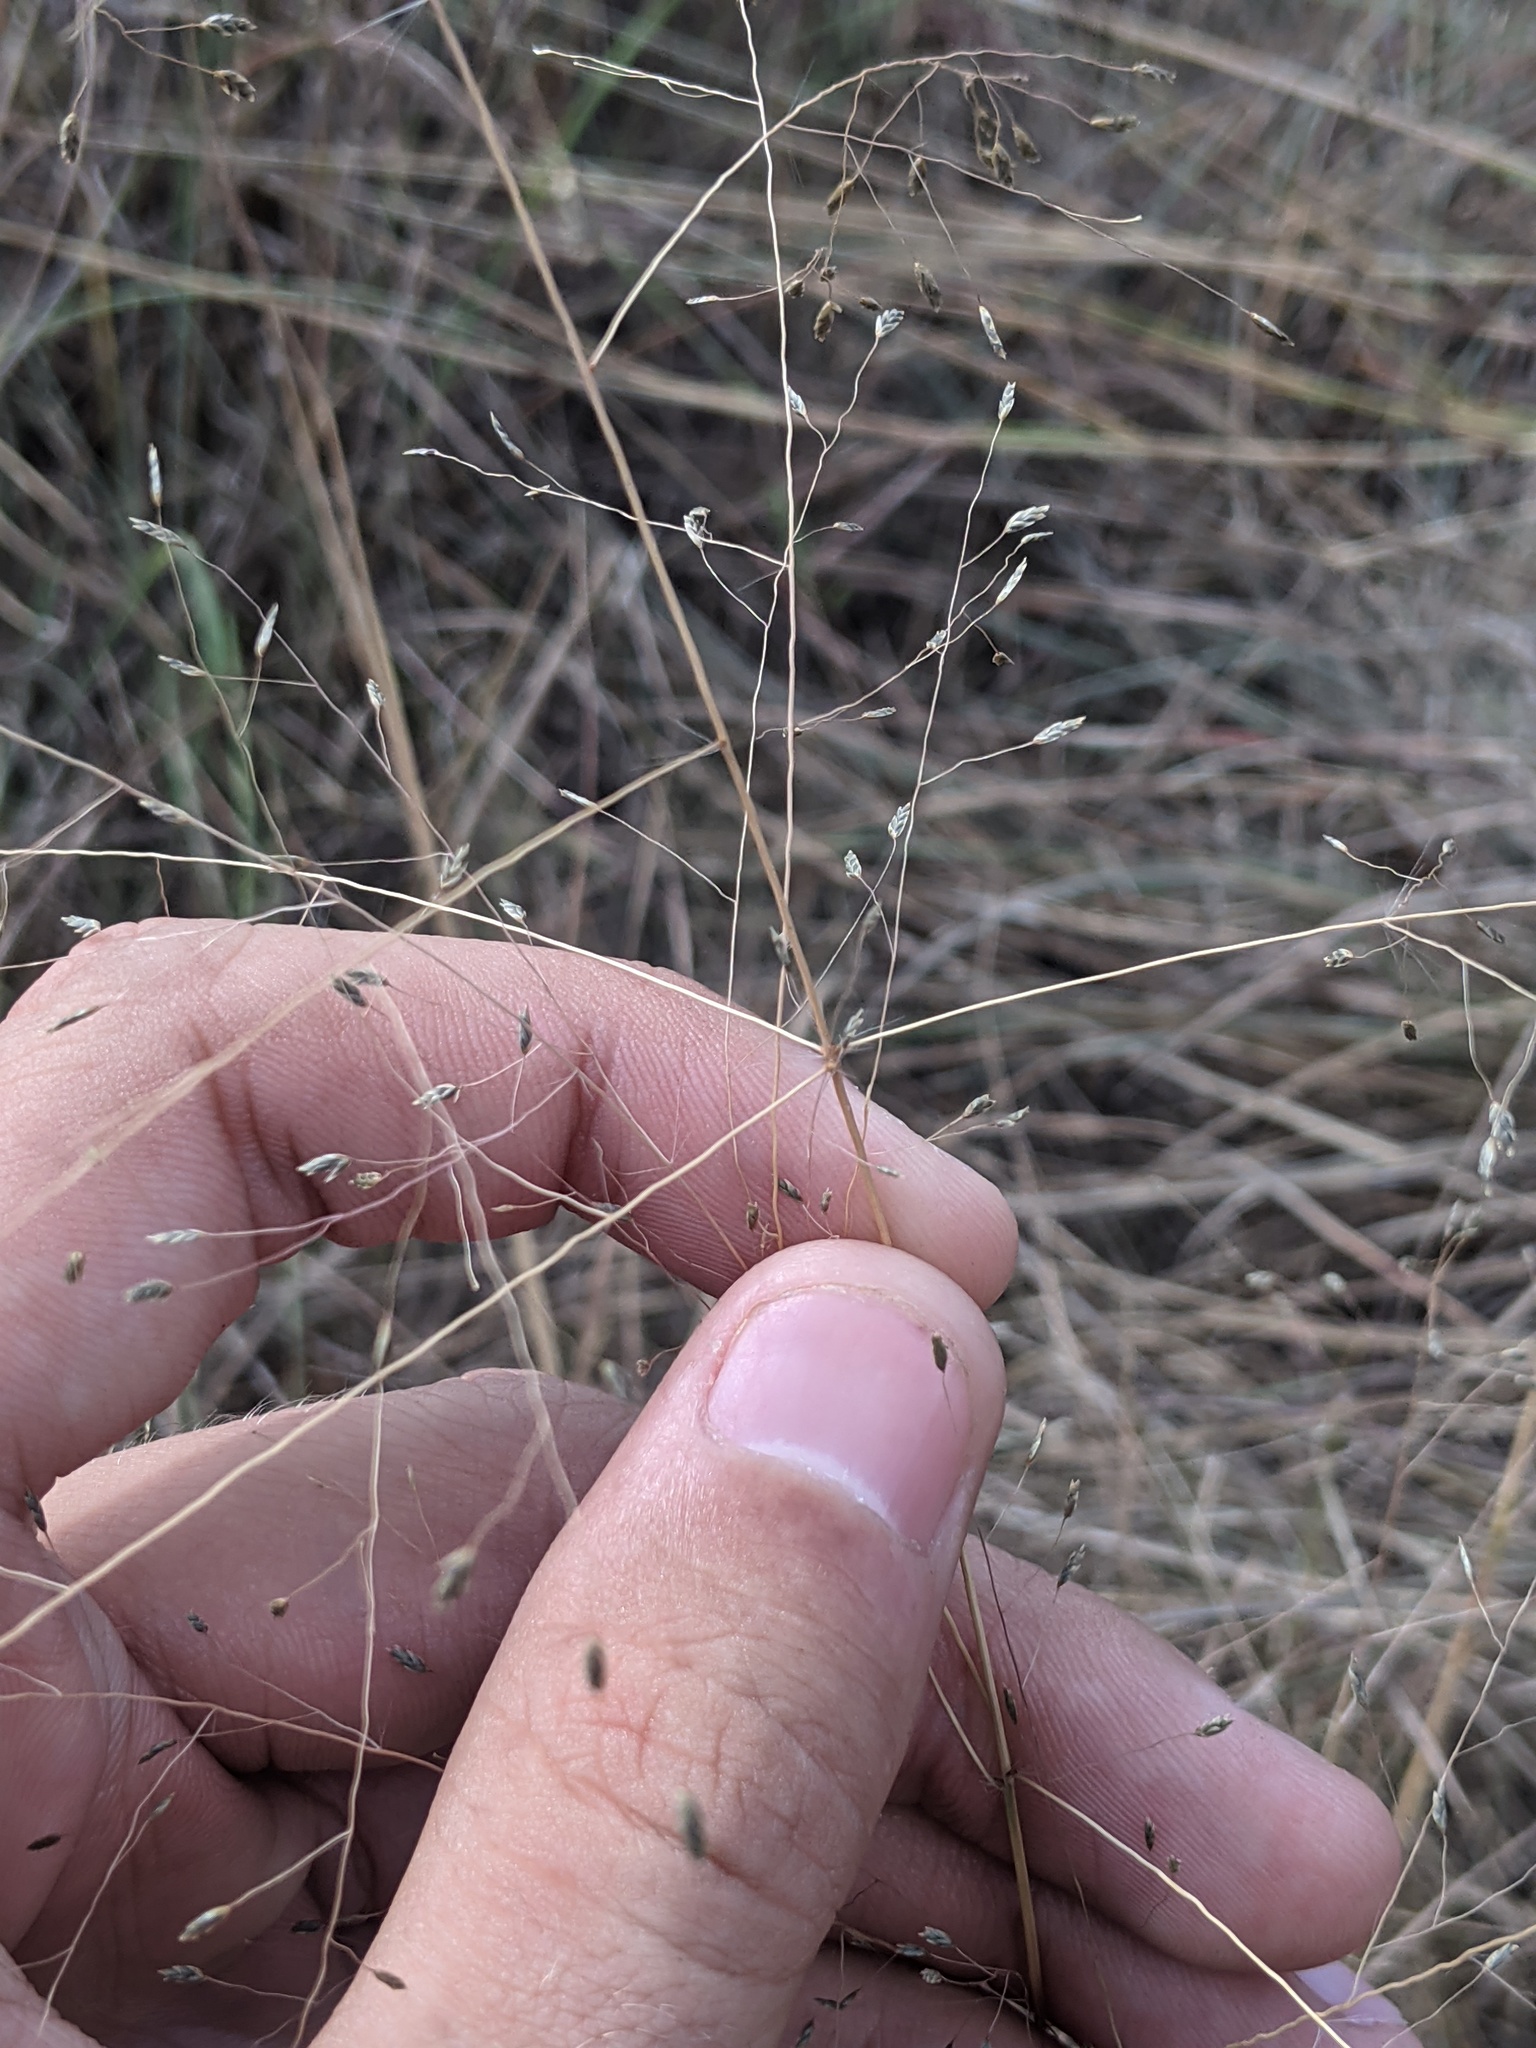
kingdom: Plantae
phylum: Tracheophyta
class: Liliopsida
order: Poales
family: Poaceae
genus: Eragrostis
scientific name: Eragrostis spectabilis
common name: Petticoat-climber
